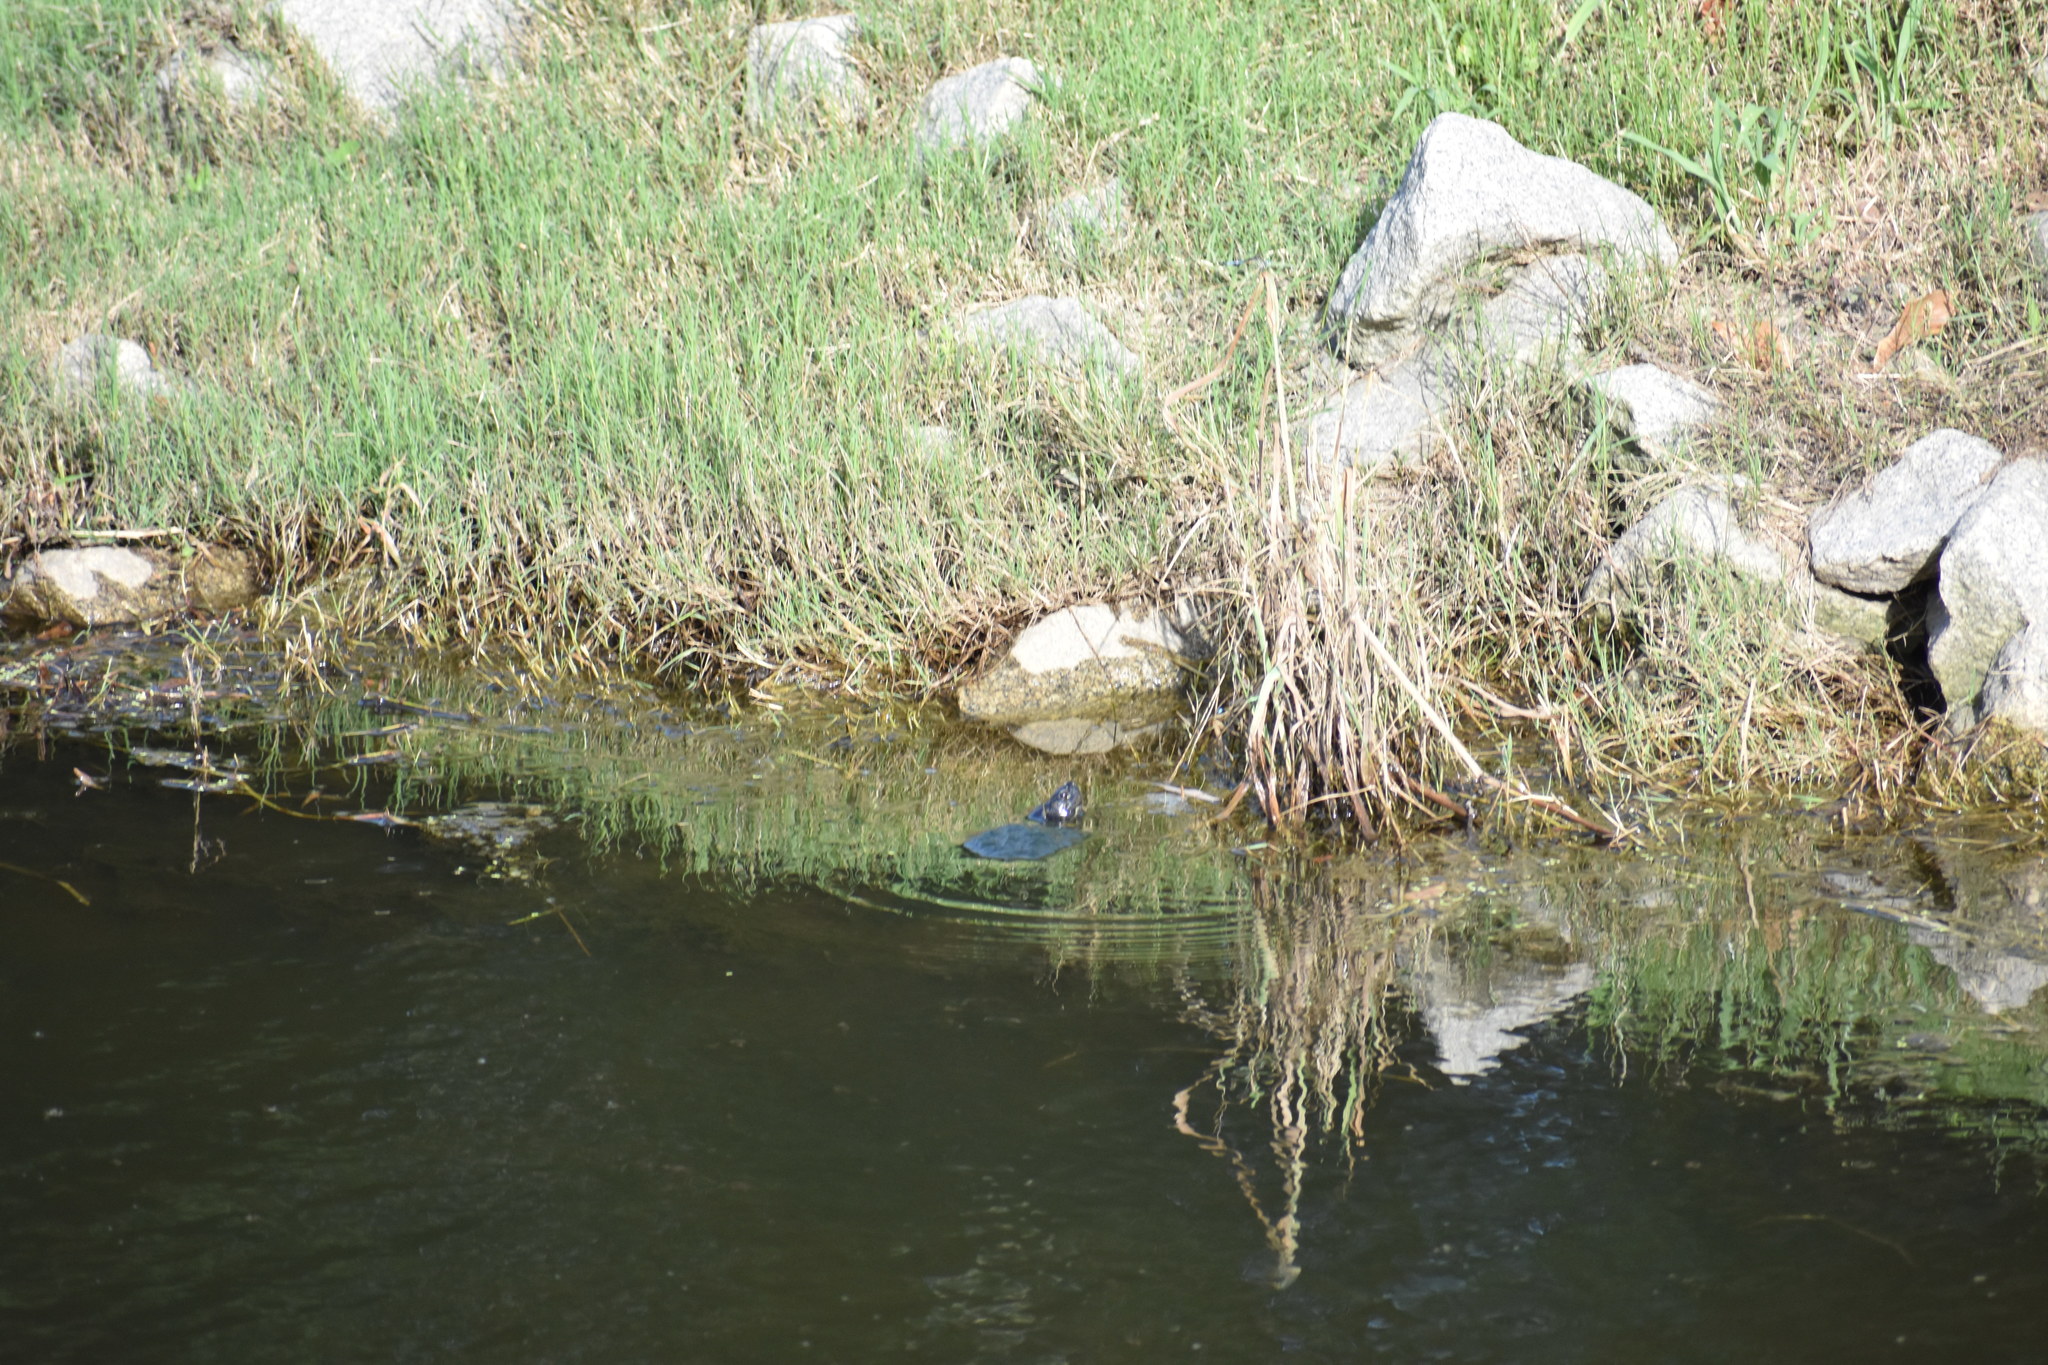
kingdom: Animalia
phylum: Chordata
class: Testudines
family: Emydidae
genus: Trachemys
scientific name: Trachemys scripta
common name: Slider
